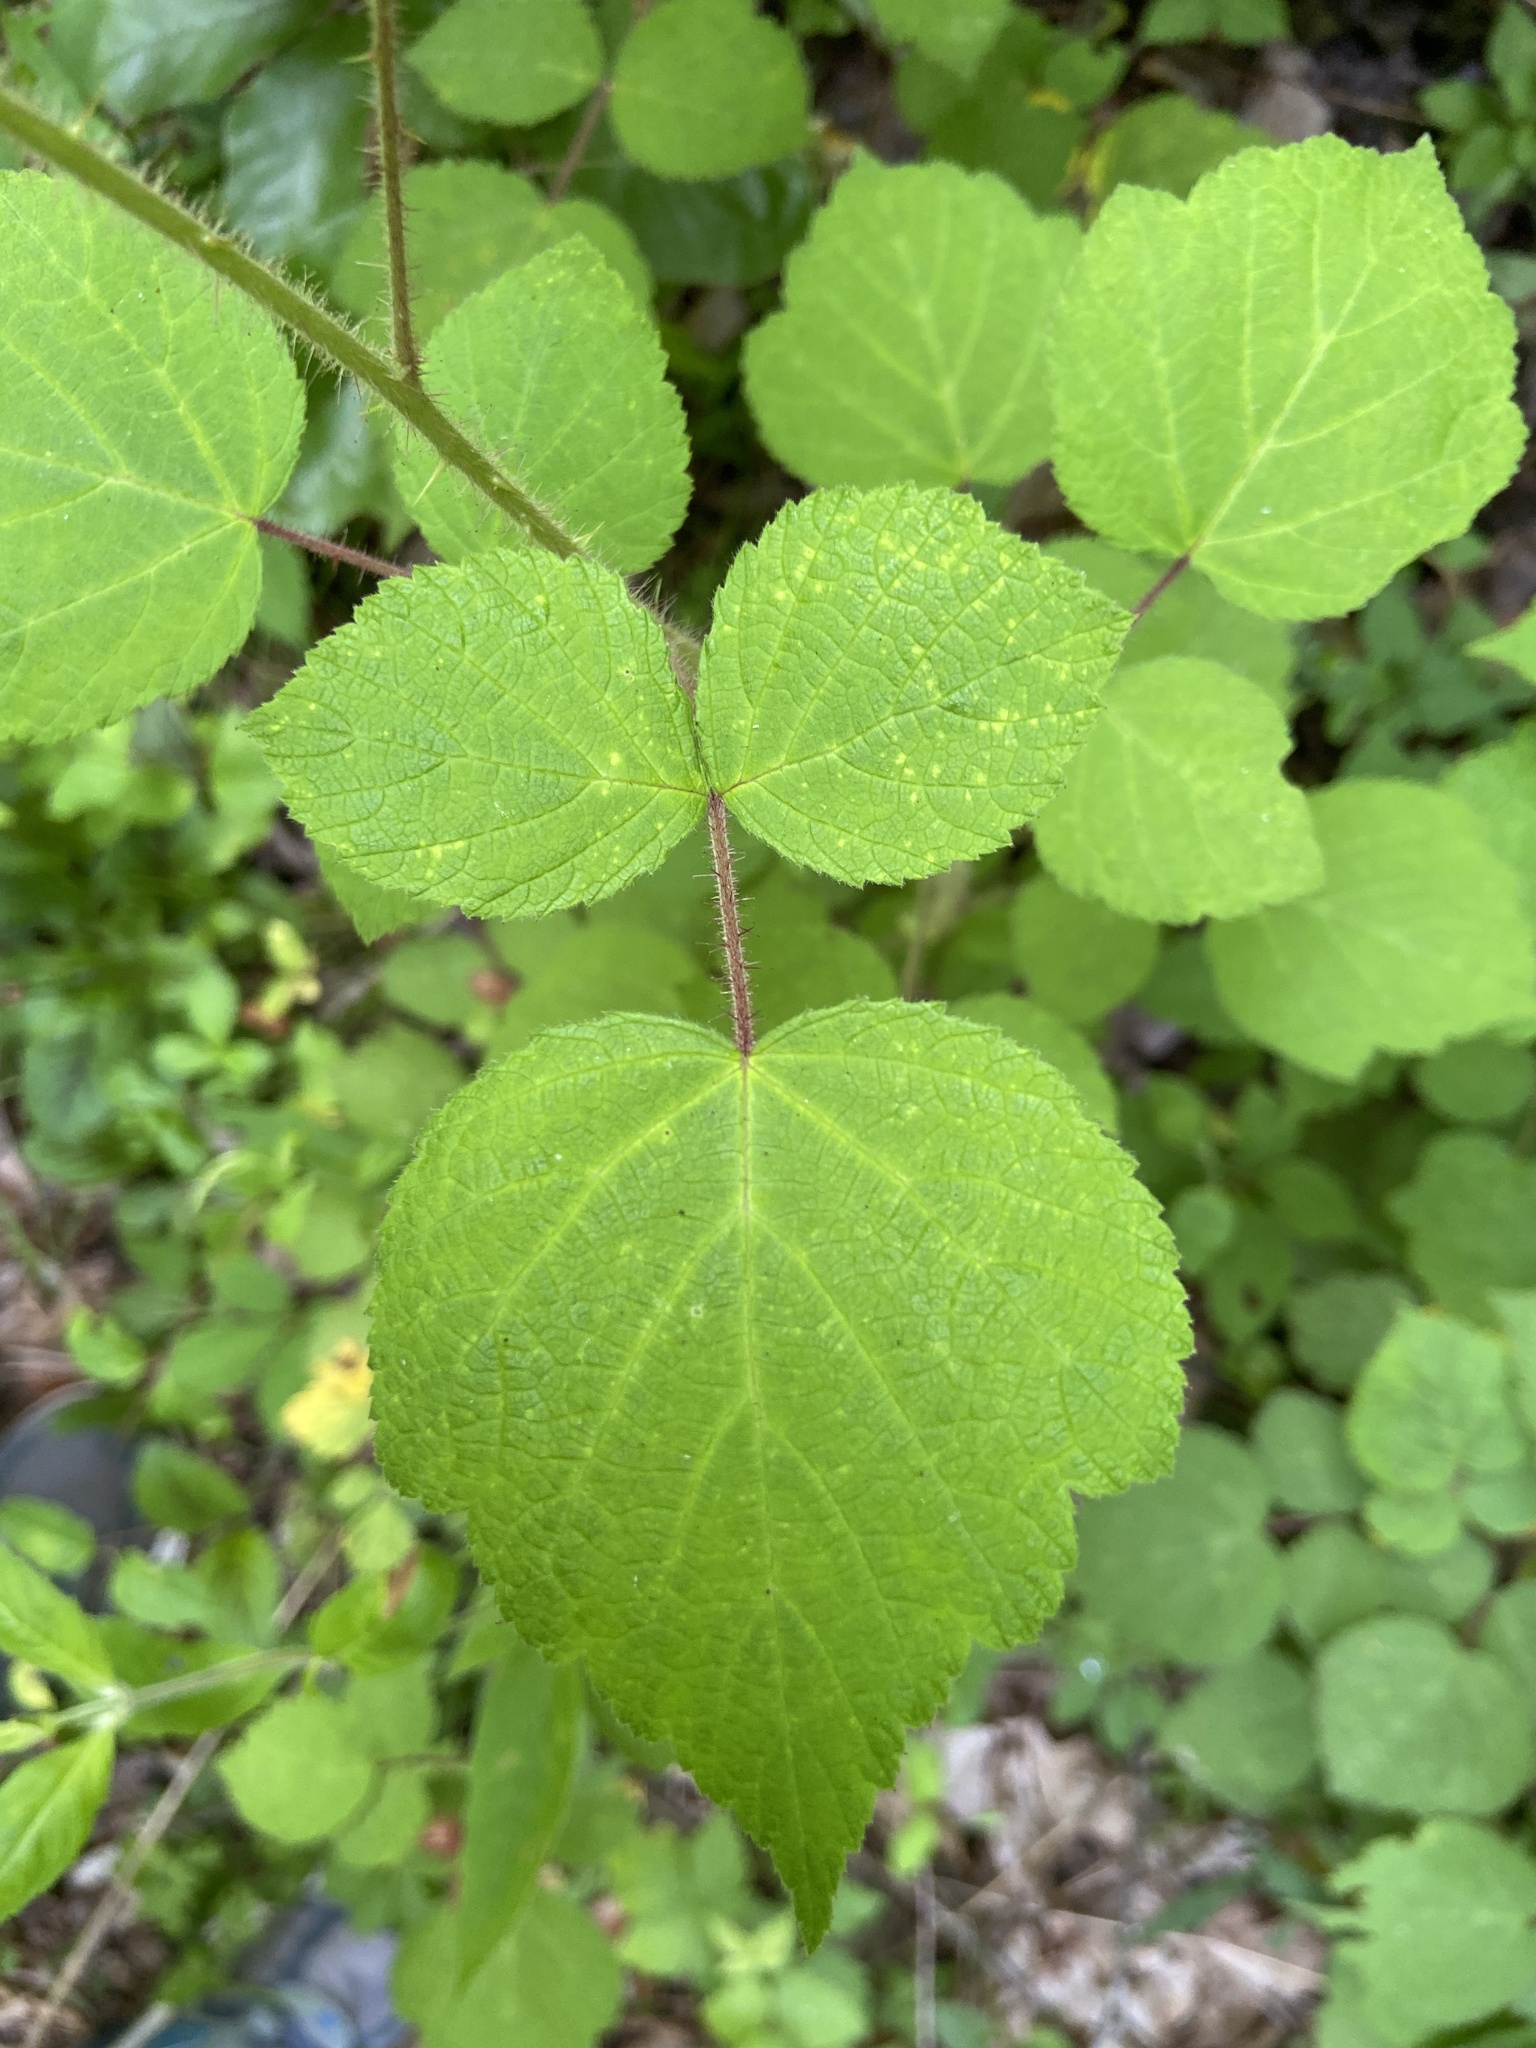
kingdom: Plantae
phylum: Tracheophyta
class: Magnoliopsida
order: Rosales
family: Rosaceae
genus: Rubus
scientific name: Rubus phoenicolasius
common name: Japanese wineberry
